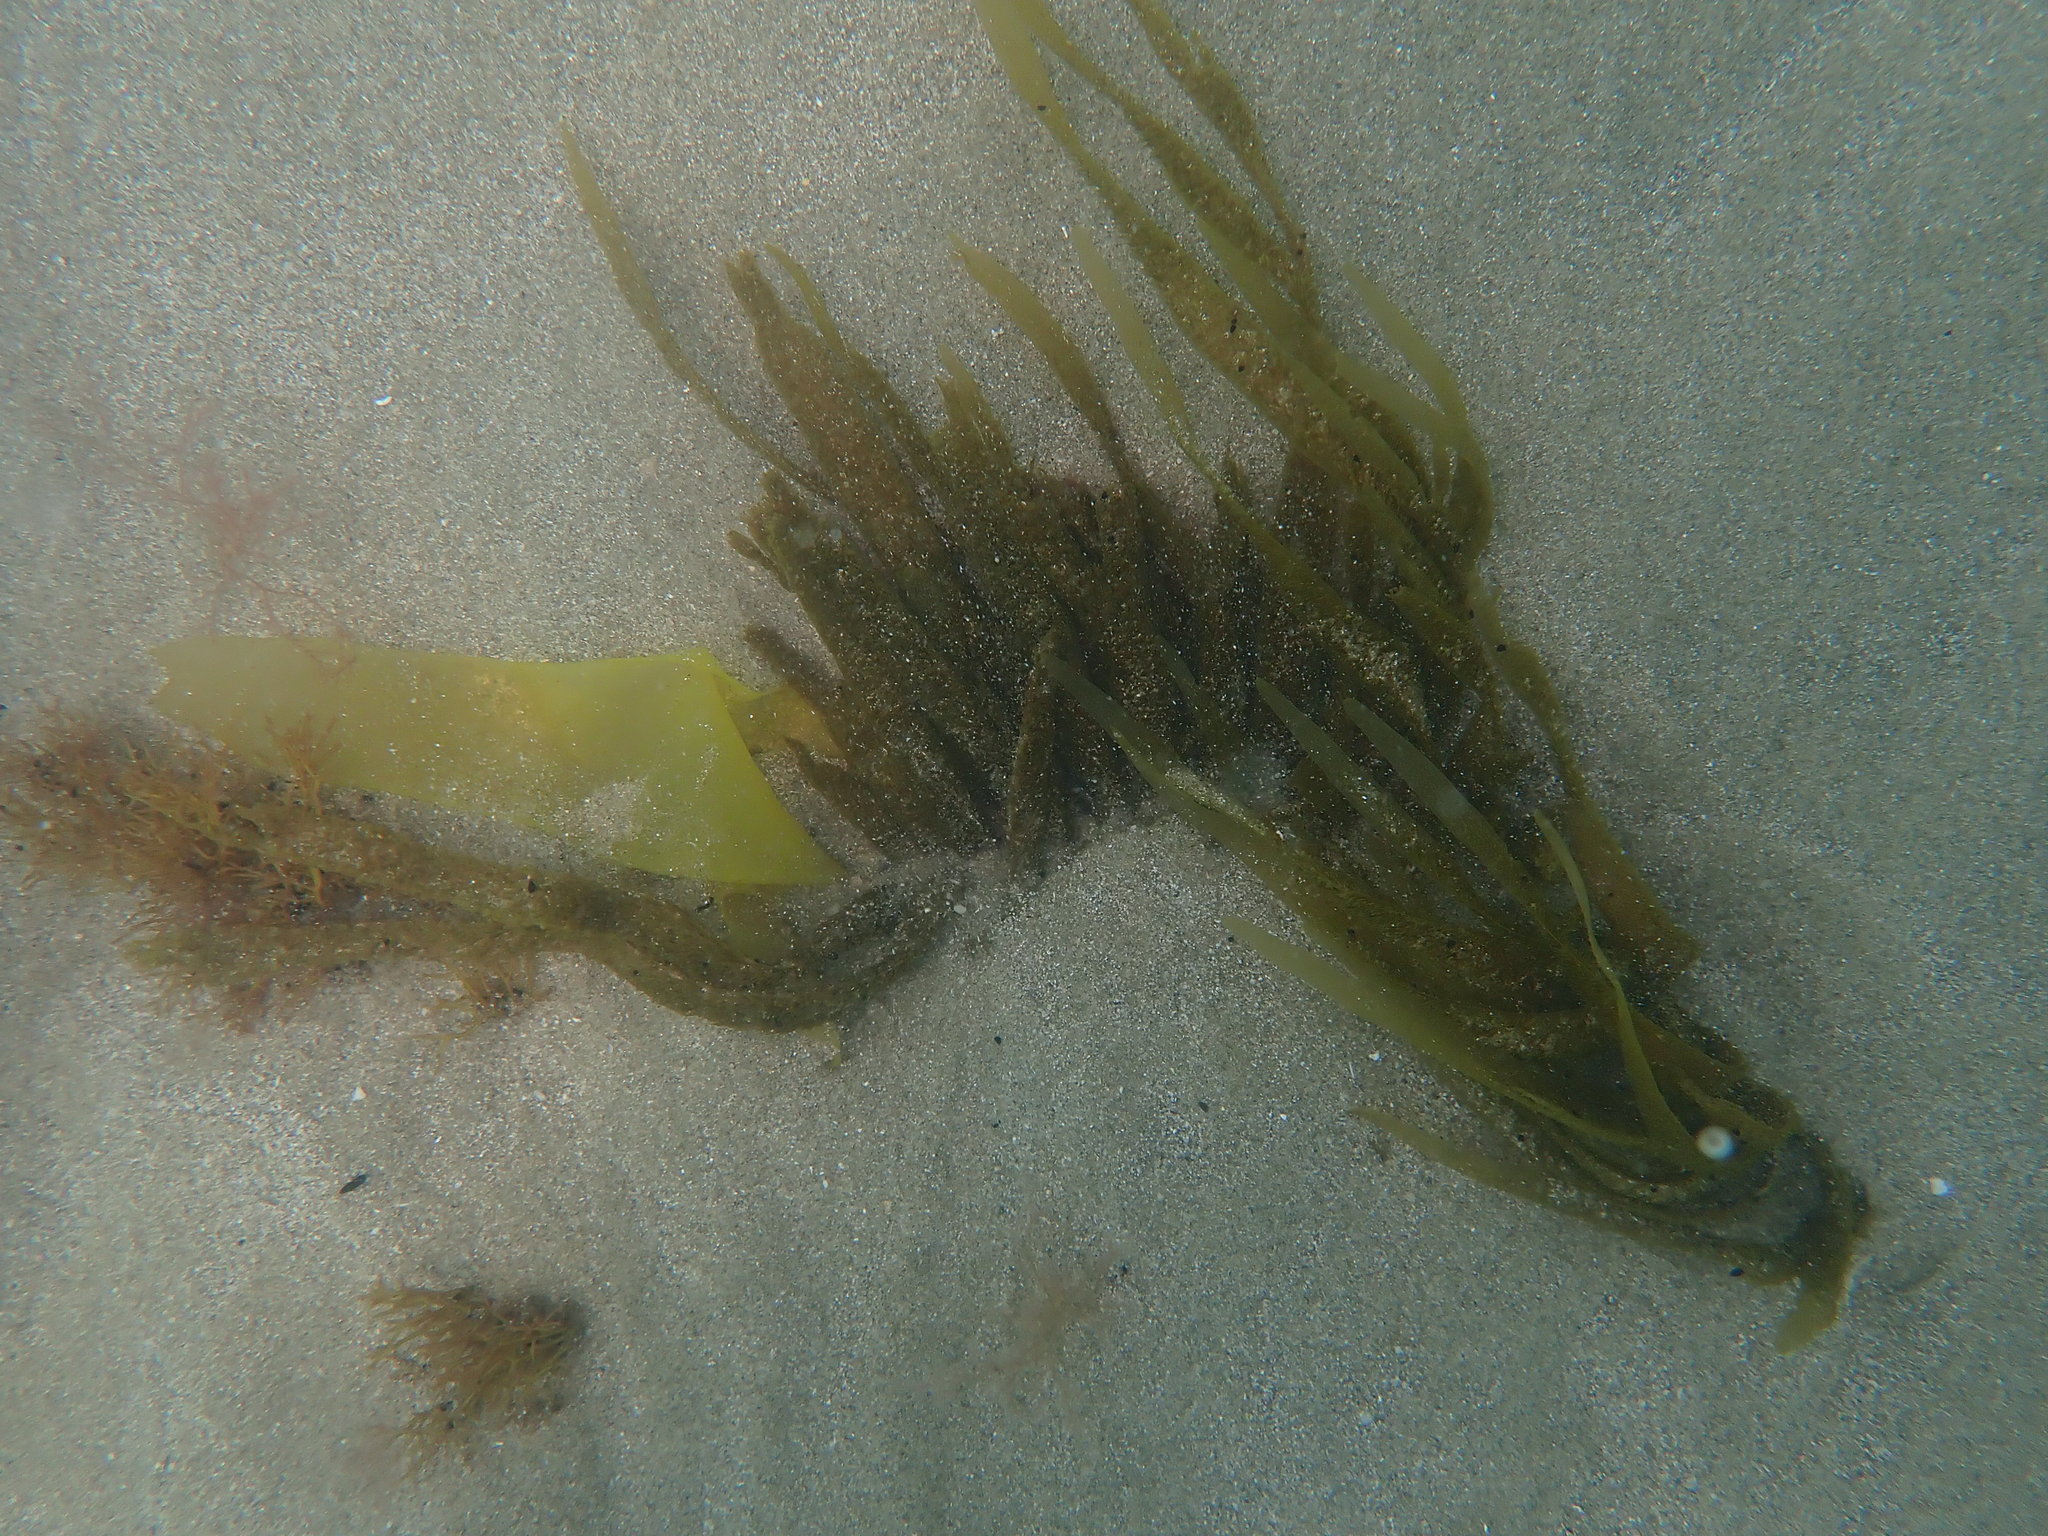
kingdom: Chromista
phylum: Ochrophyta
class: Phaeophyceae
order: Dictyotales
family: Dictyotaceae
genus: Dictyota
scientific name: Dictyota kunthii
